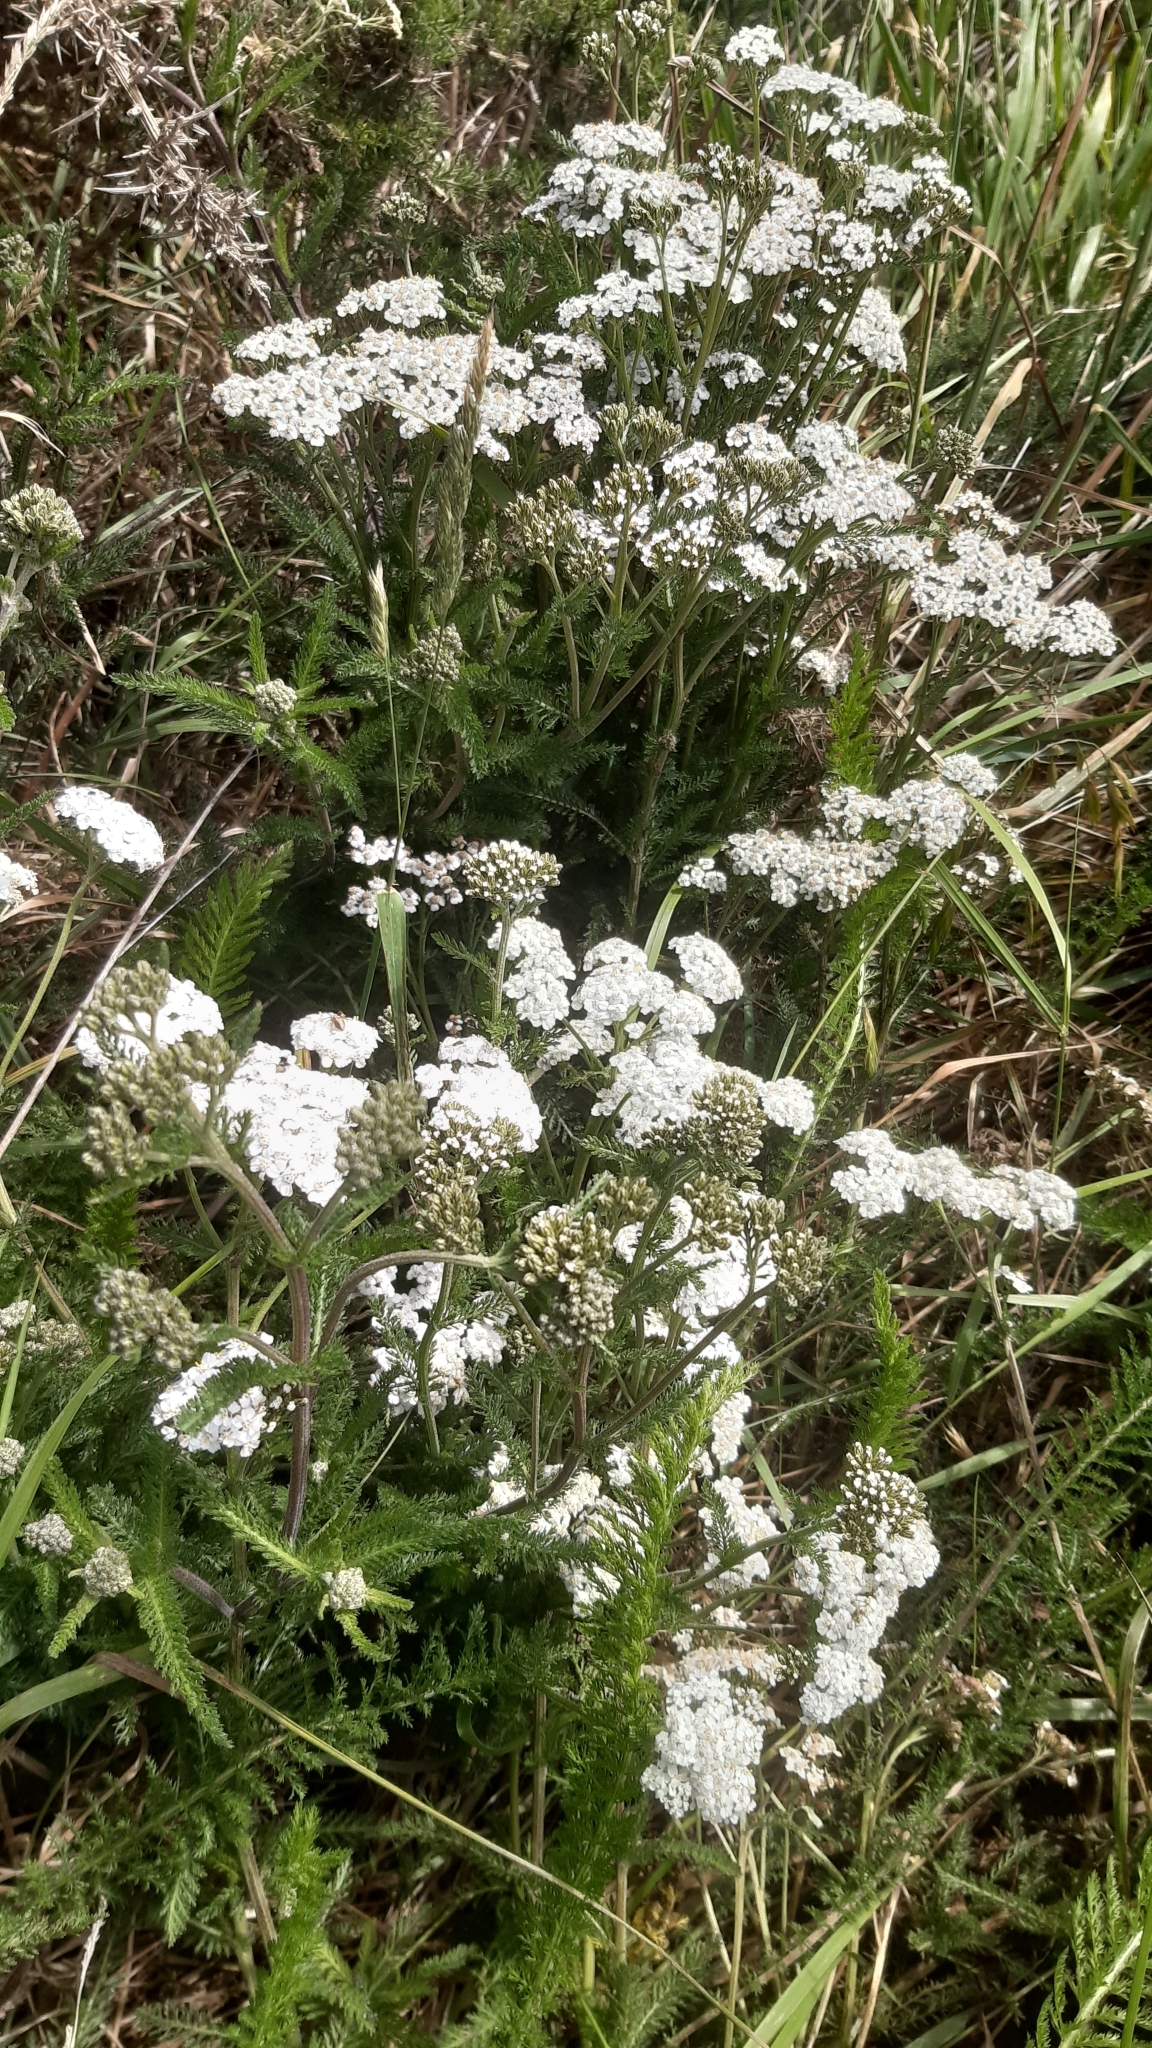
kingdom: Plantae
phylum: Tracheophyta
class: Magnoliopsida
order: Asterales
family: Asteraceae
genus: Achillea
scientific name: Achillea millefolium
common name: Yarrow
